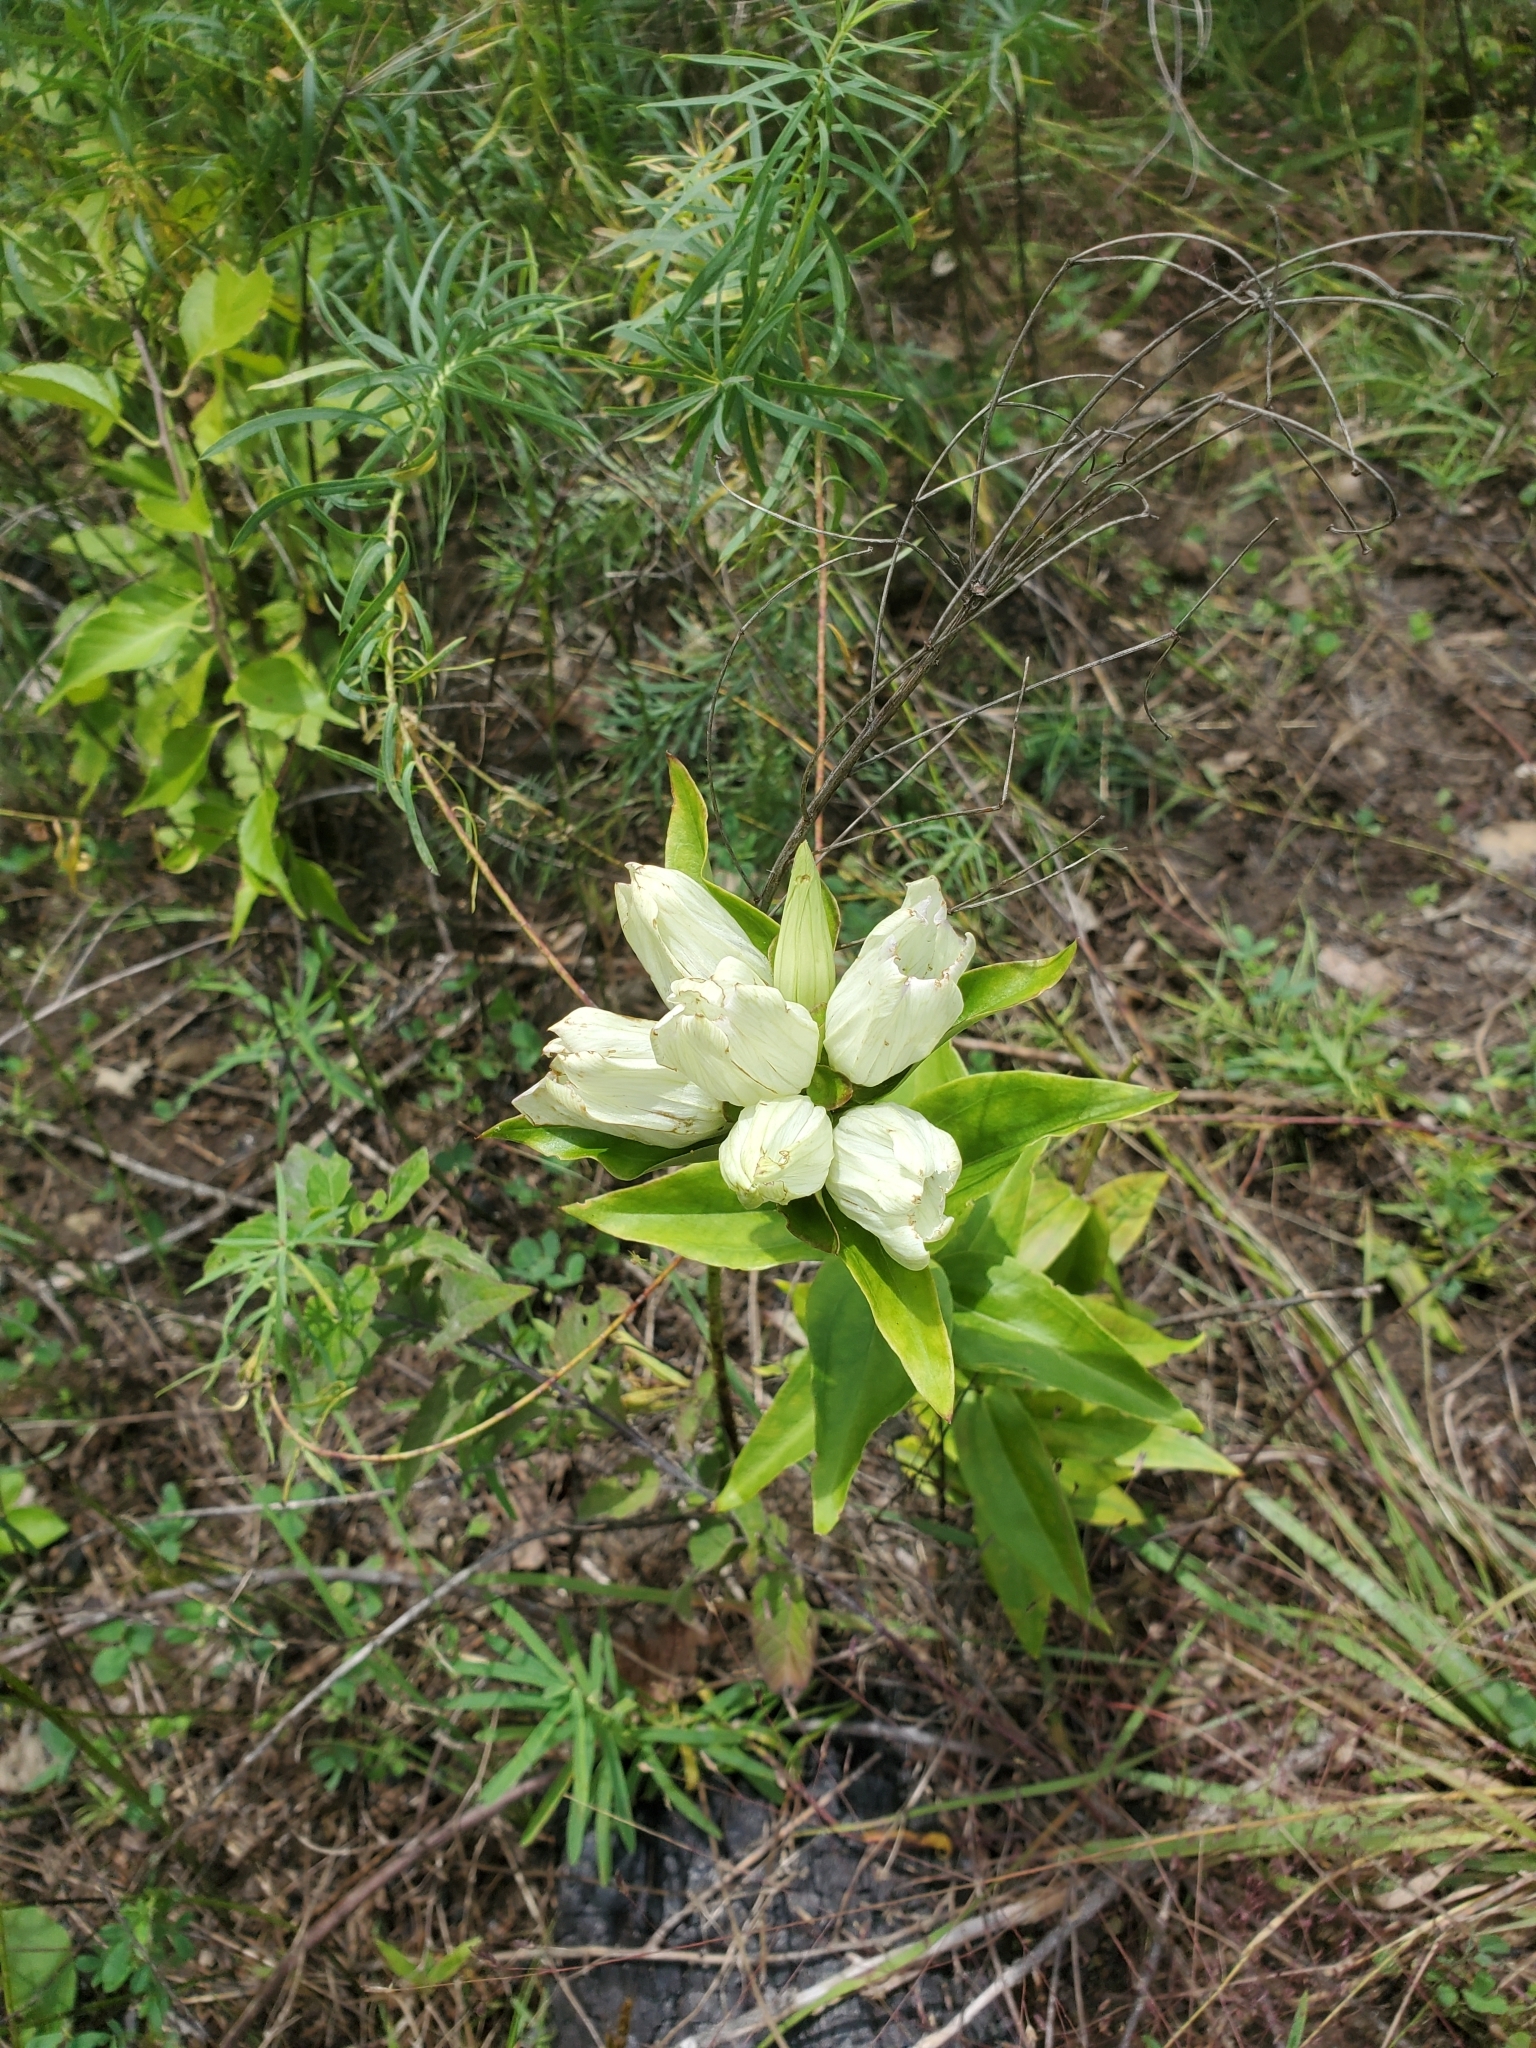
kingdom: Plantae
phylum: Tracheophyta
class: Magnoliopsida
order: Gentianales
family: Gentianaceae
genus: Gentiana
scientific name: Gentiana alba
